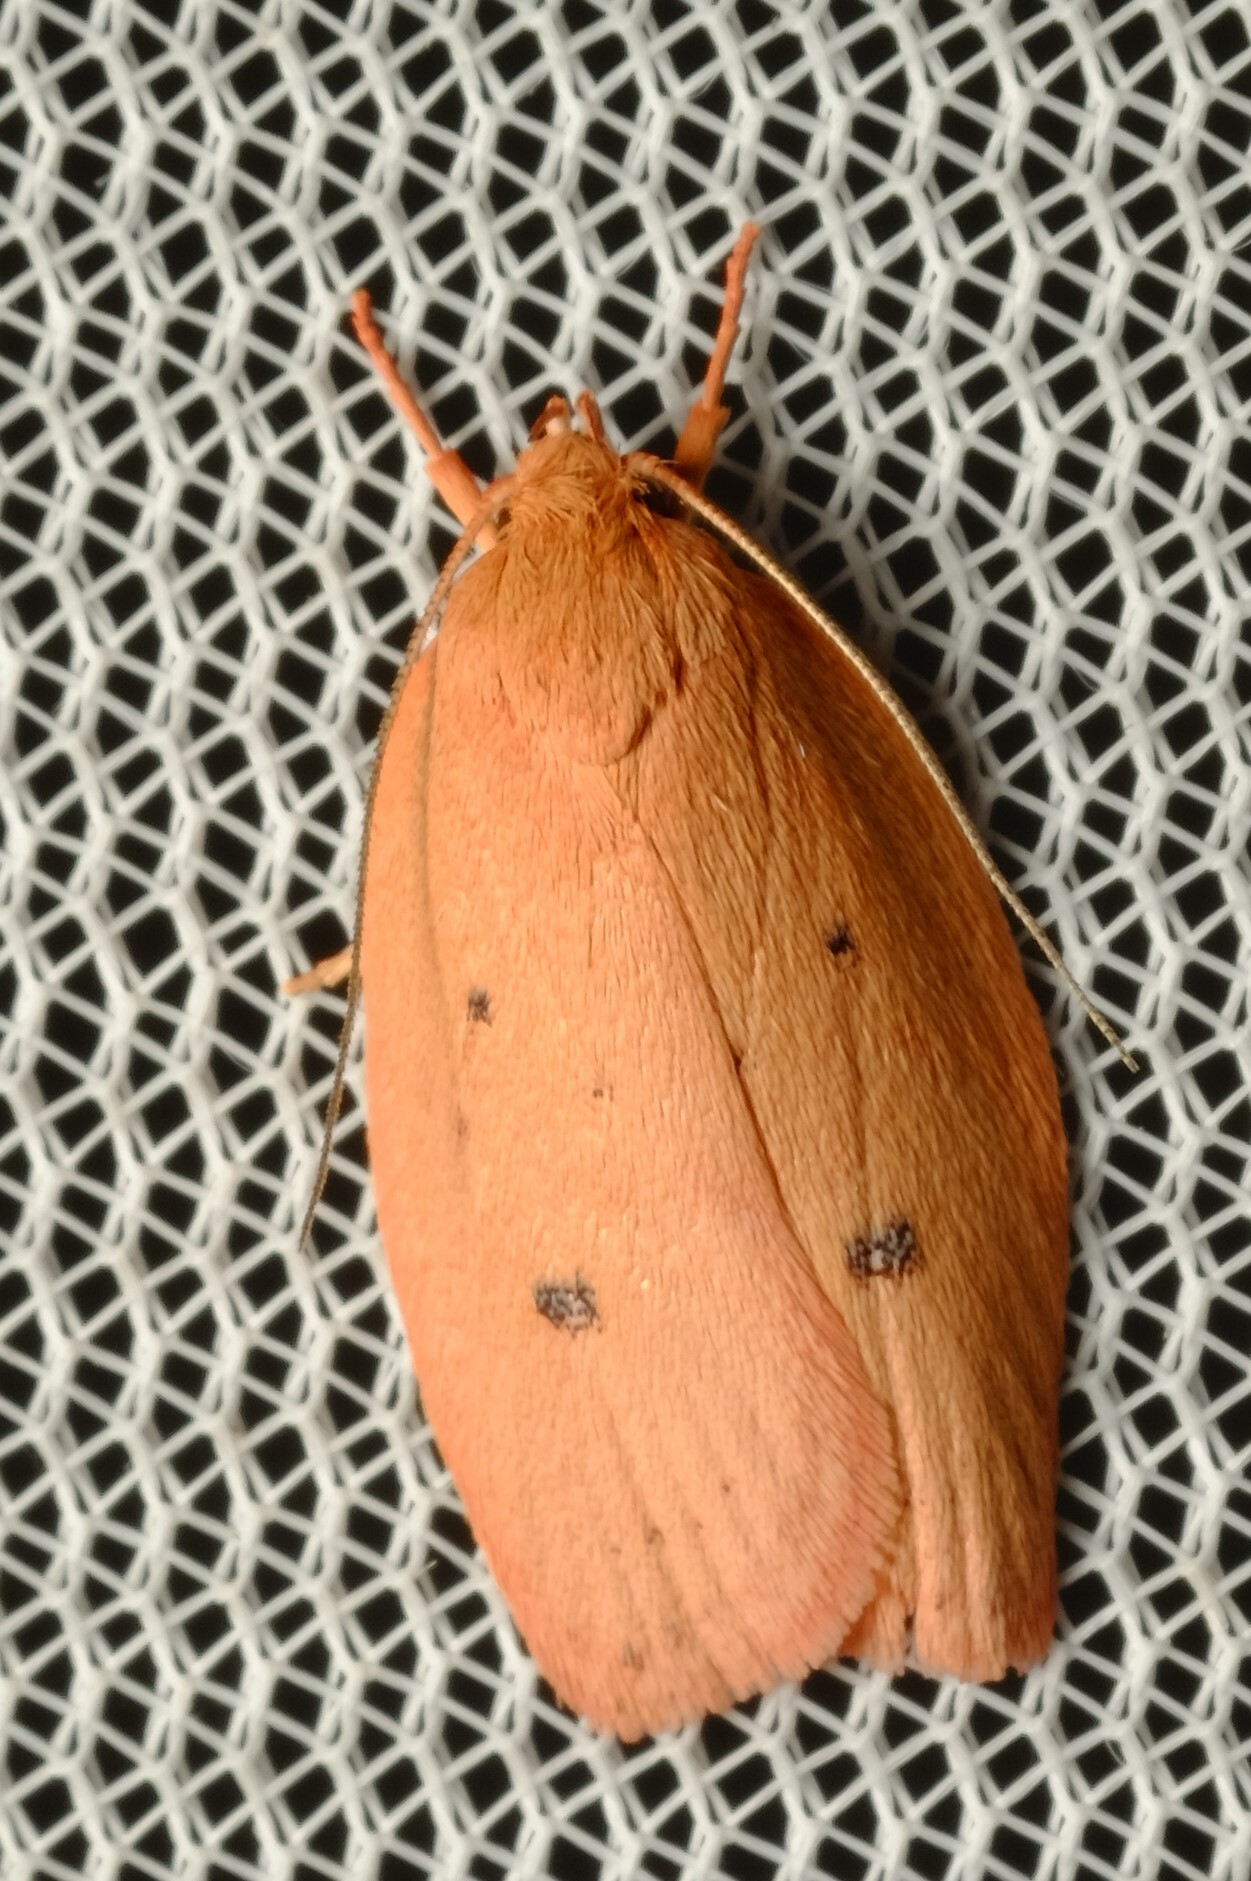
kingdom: Animalia
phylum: Arthropoda
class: Insecta
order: Lepidoptera
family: Oecophoridae
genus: Garrha
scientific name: Garrha pudica
